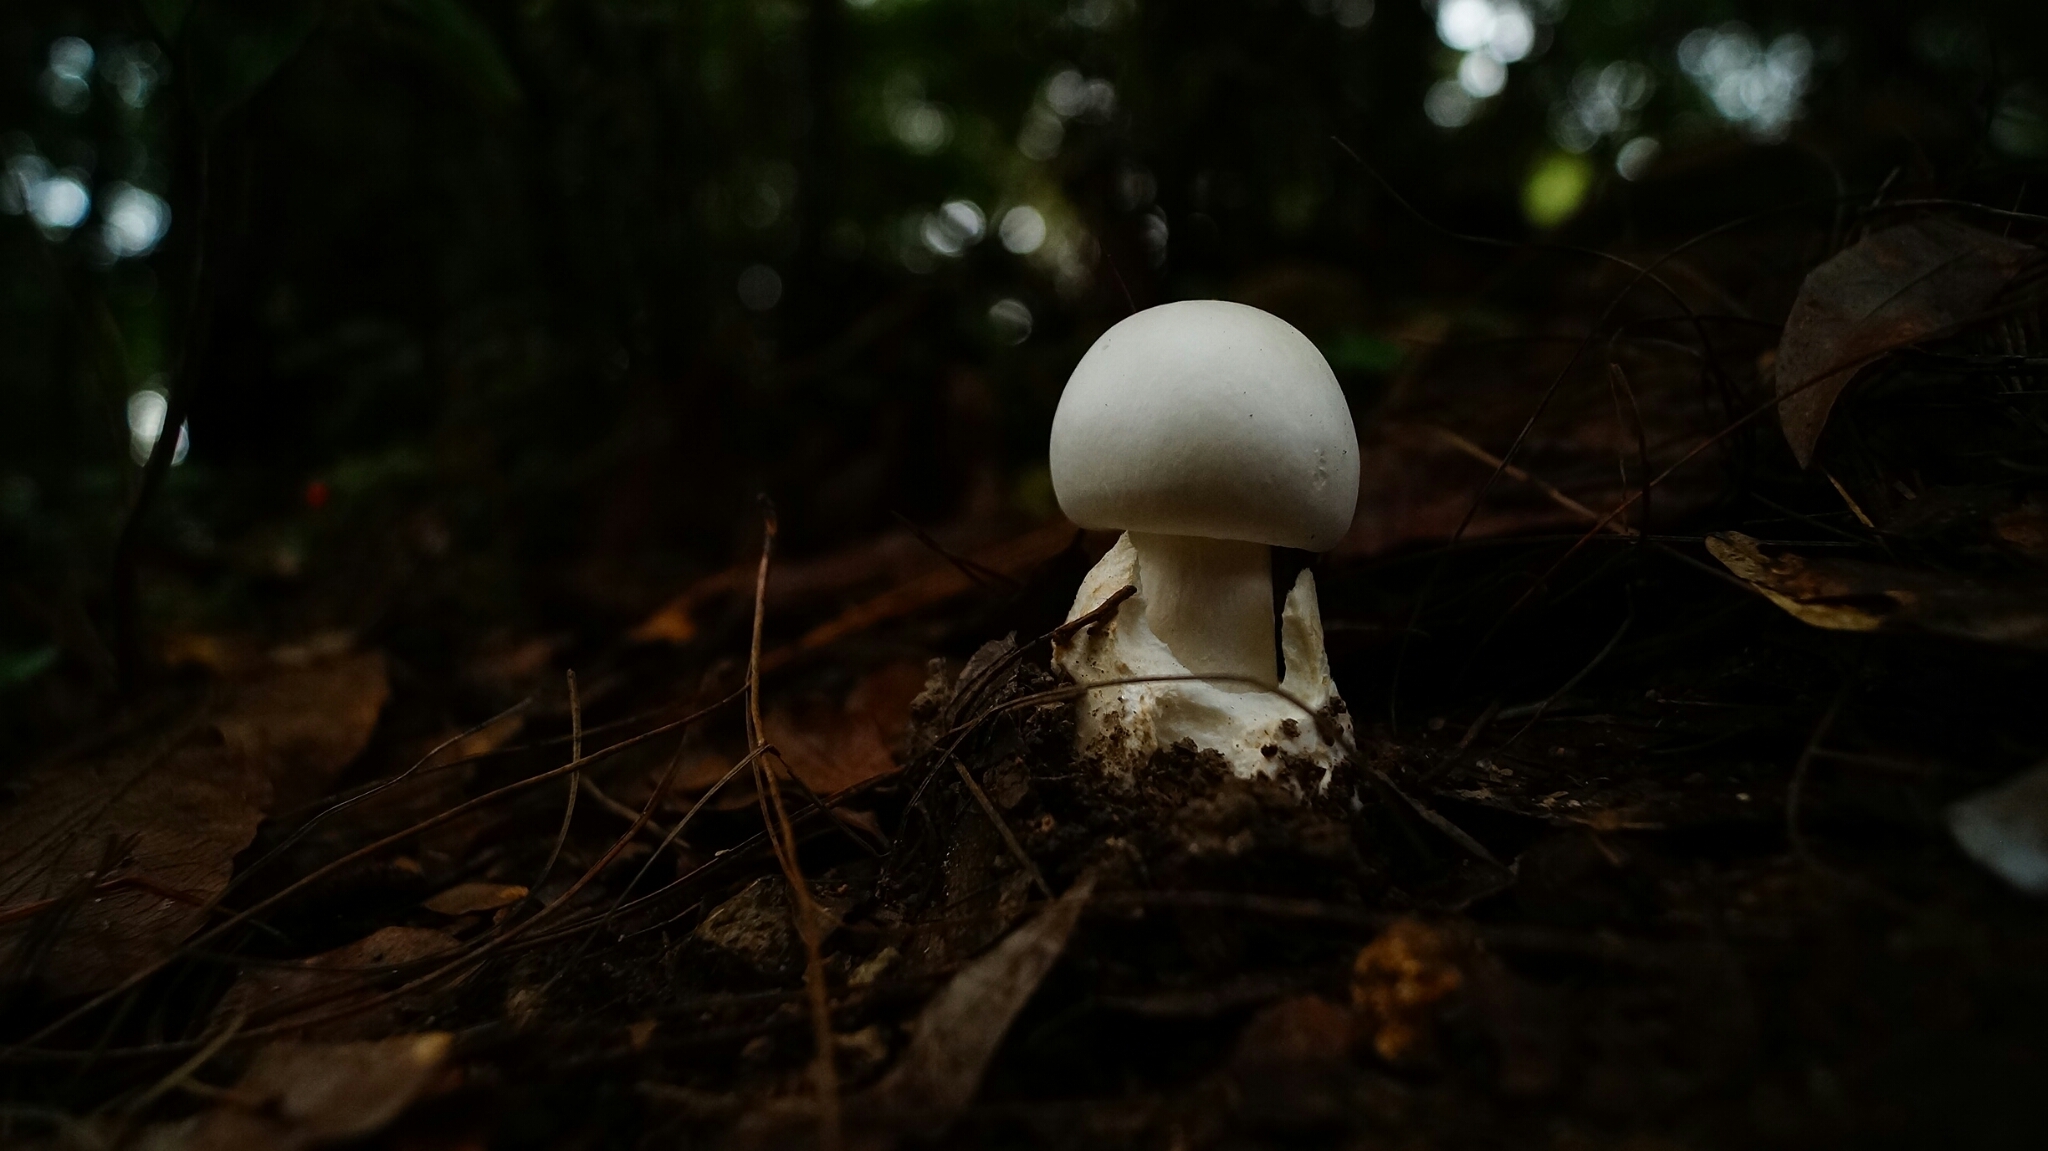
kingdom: Fungi
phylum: Basidiomycota
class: Agaricomycetes
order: Agaricales
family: Amanitaceae
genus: Amanita
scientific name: Amanita elliptosperma
